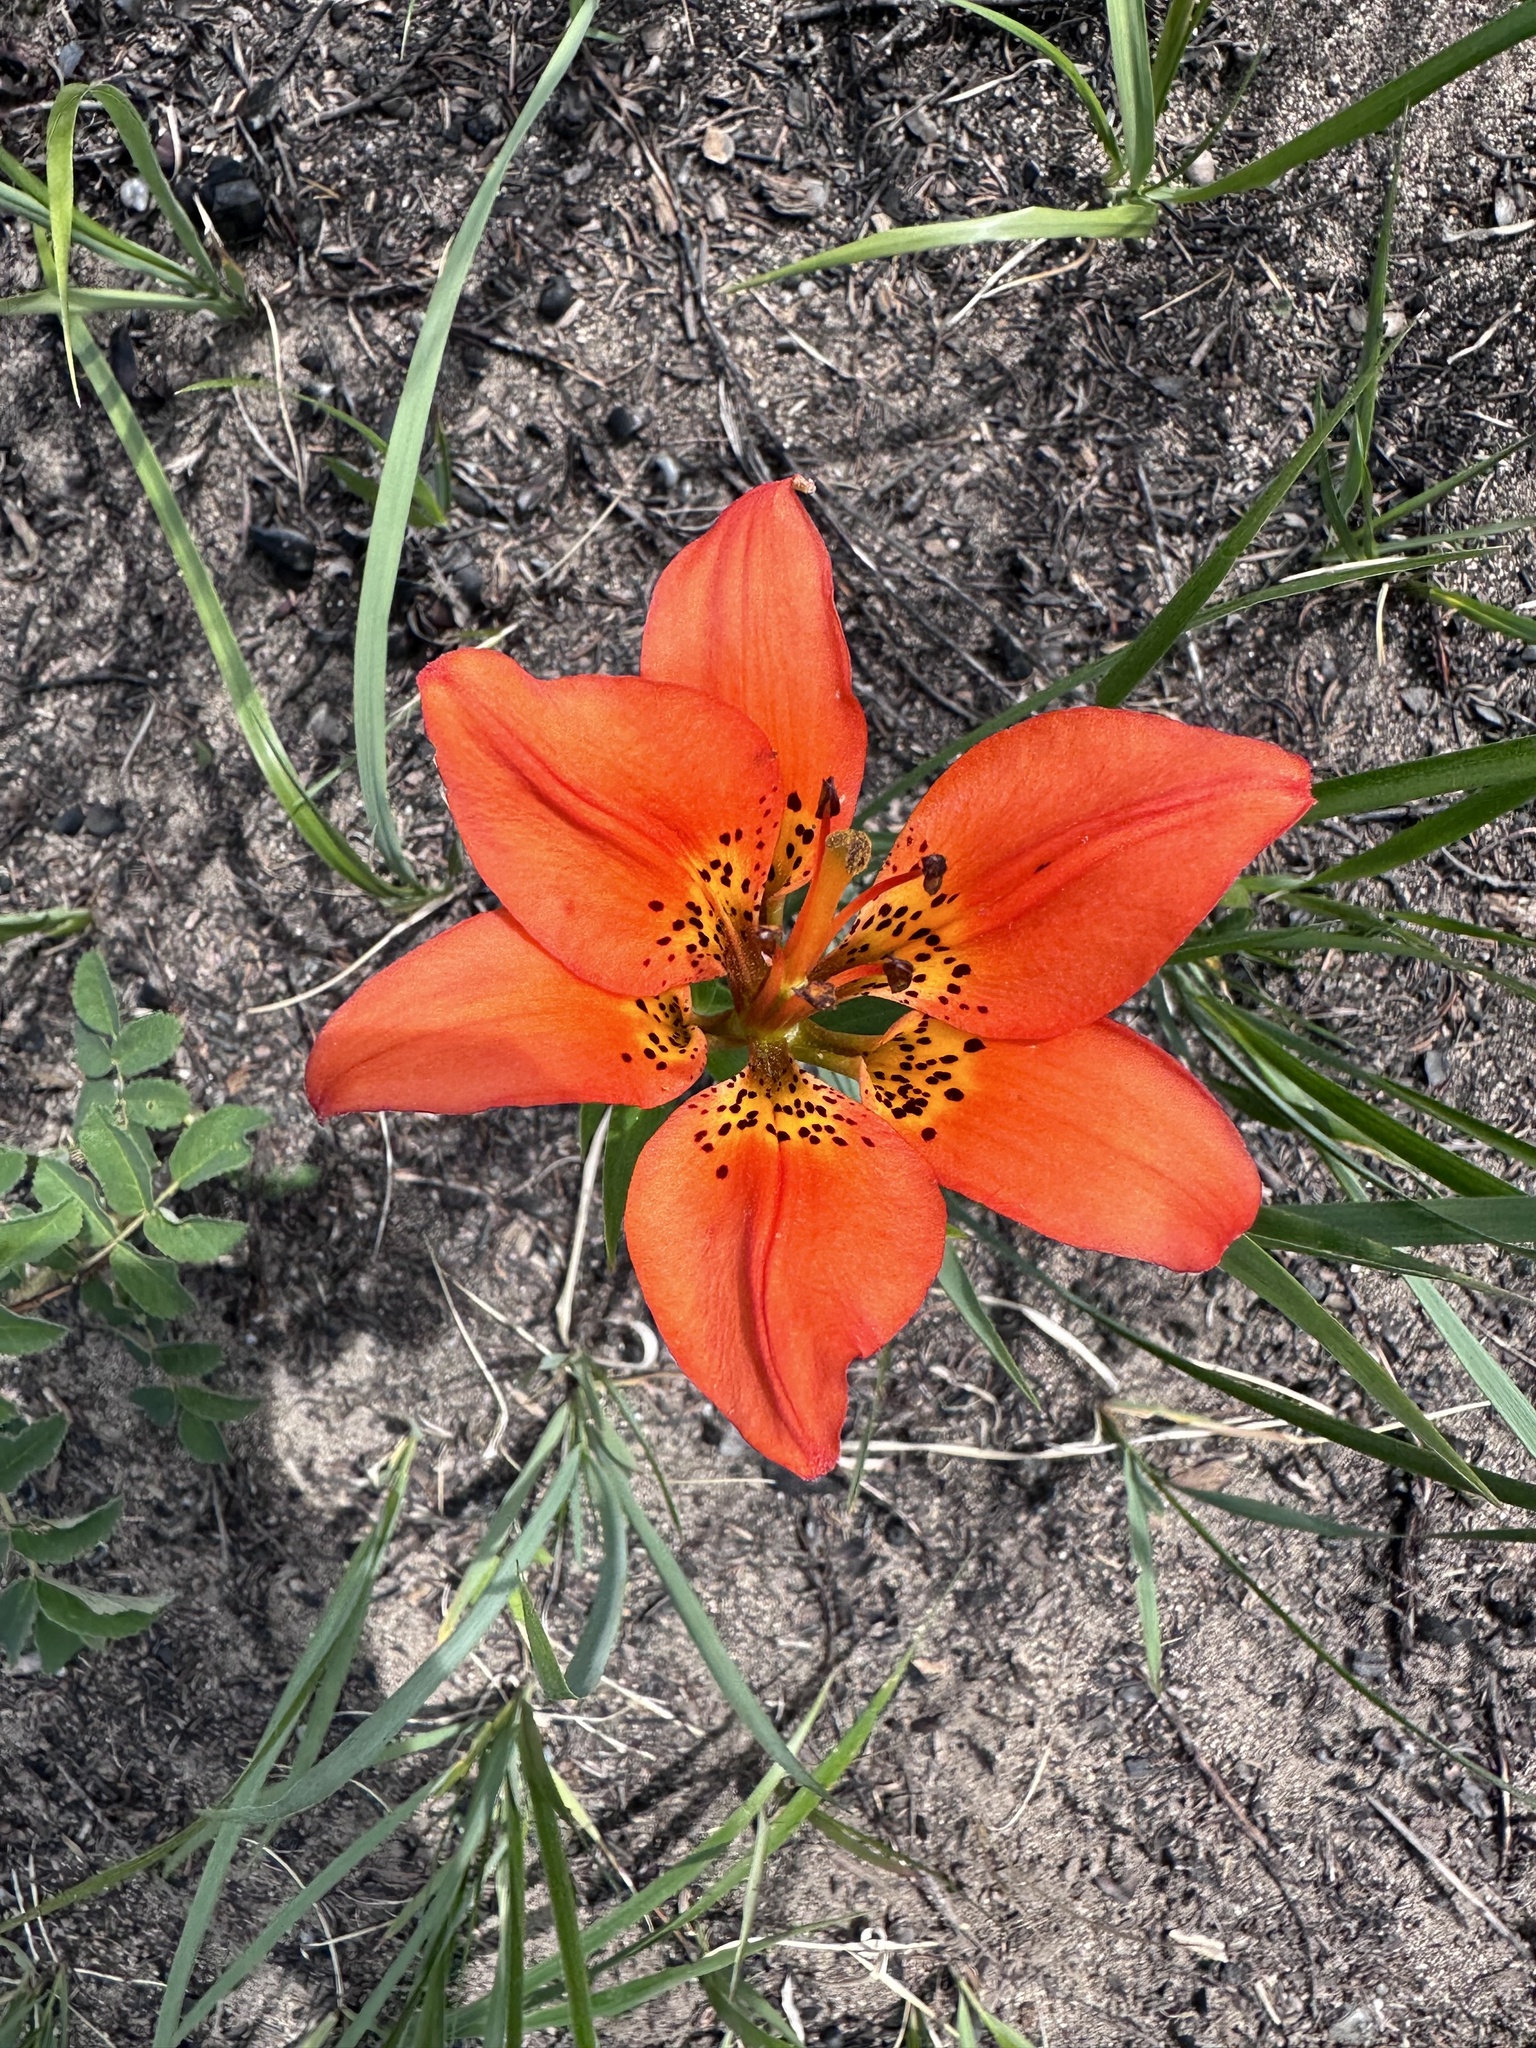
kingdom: Plantae
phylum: Tracheophyta
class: Liliopsida
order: Liliales
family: Liliaceae
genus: Lilium
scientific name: Lilium philadelphicum
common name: Red lily
